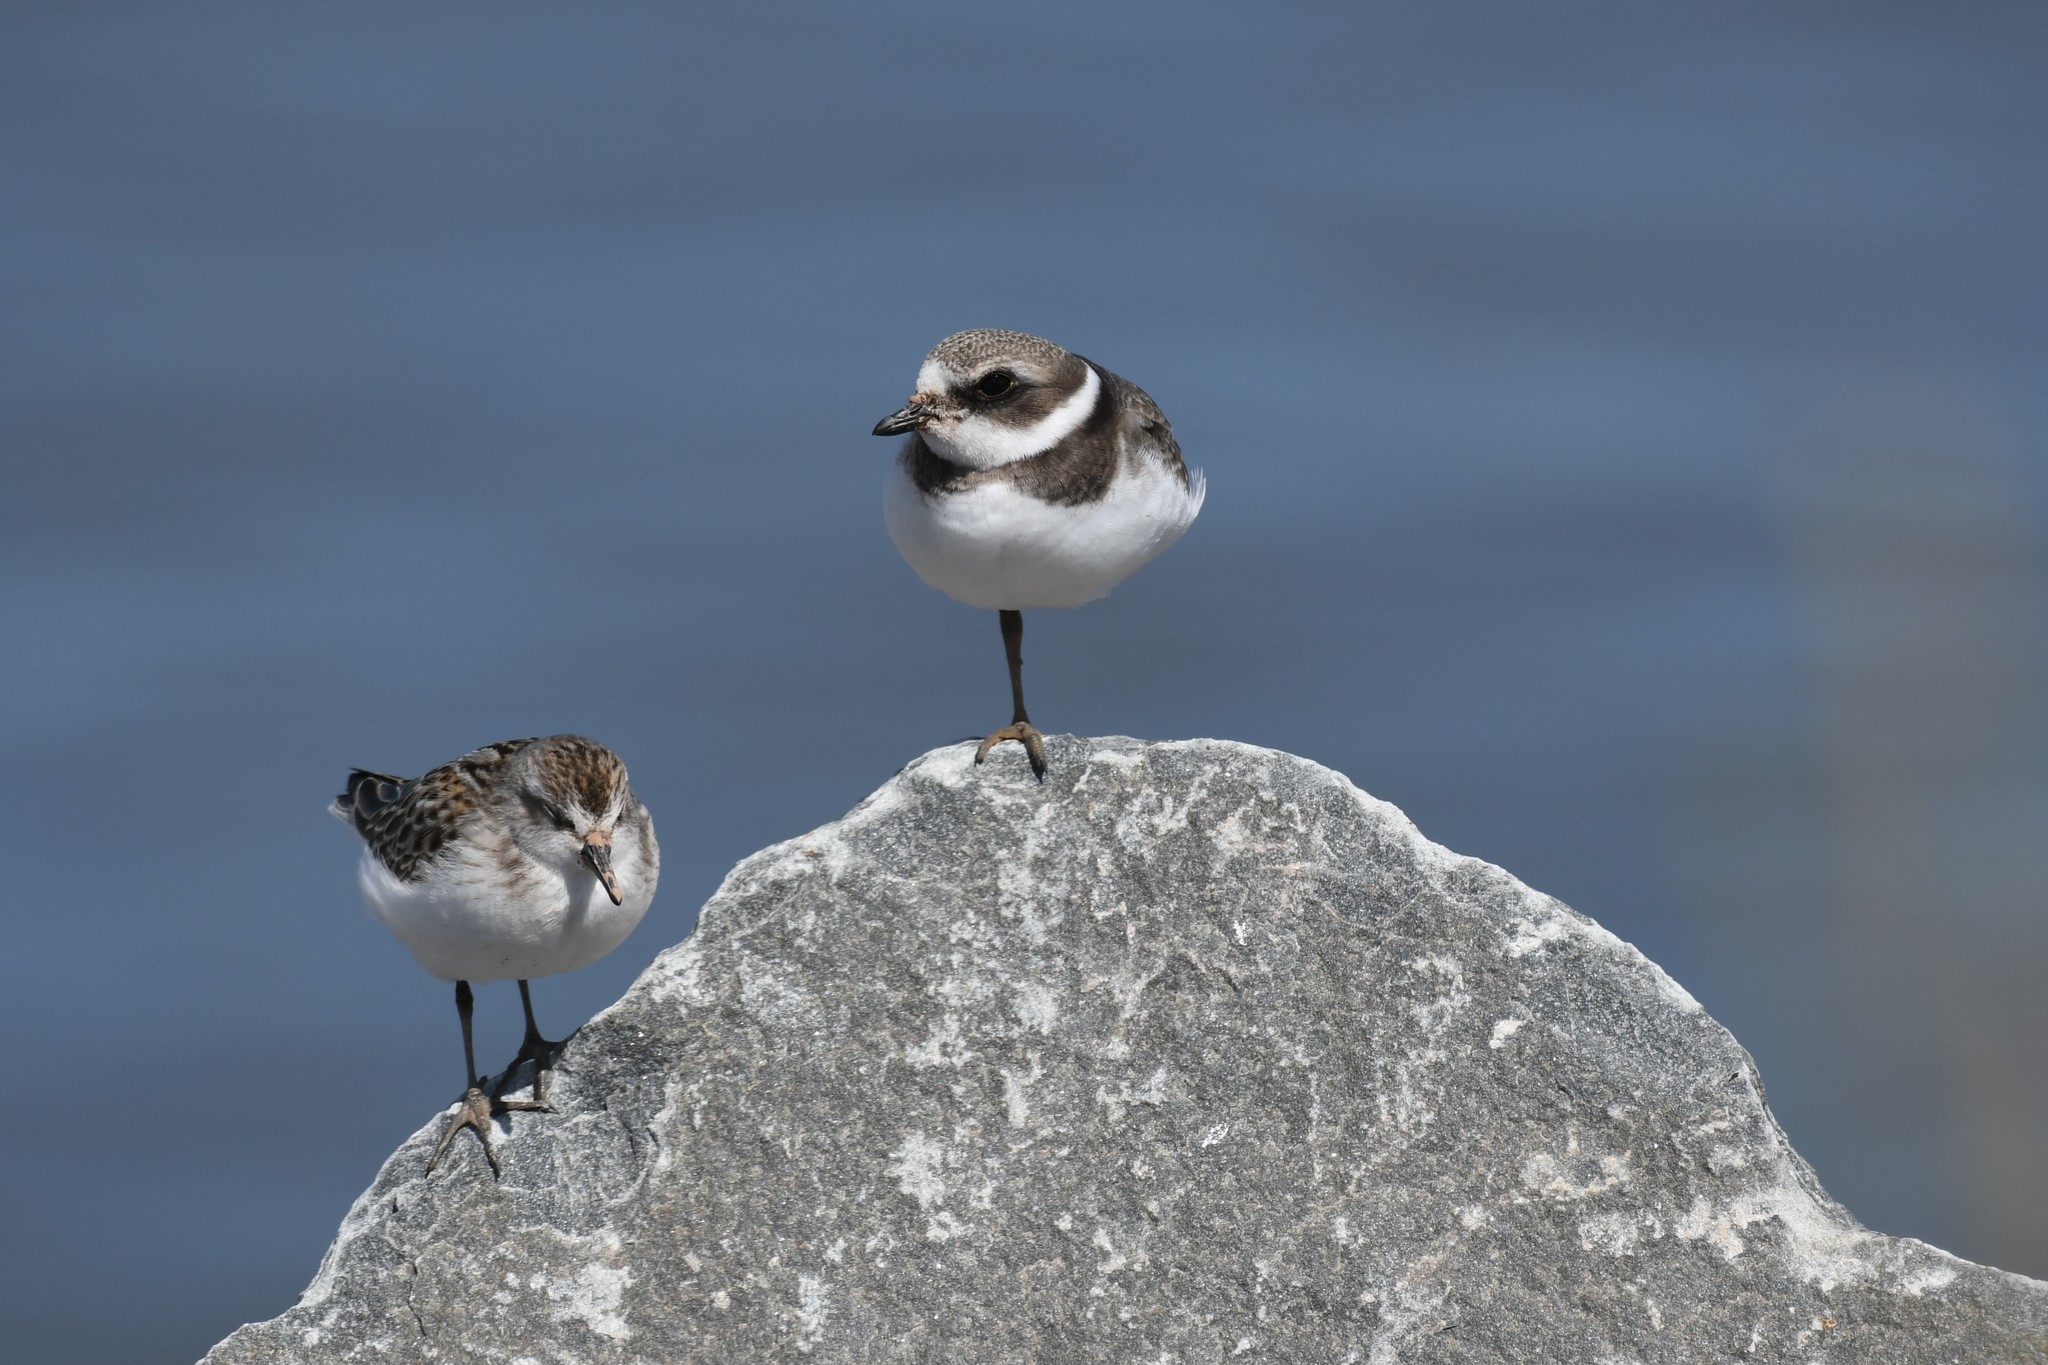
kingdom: Animalia
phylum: Chordata
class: Aves
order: Charadriiformes
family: Charadriidae
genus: Charadrius
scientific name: Charadrius semipalmatus
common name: Semipalmated plover
